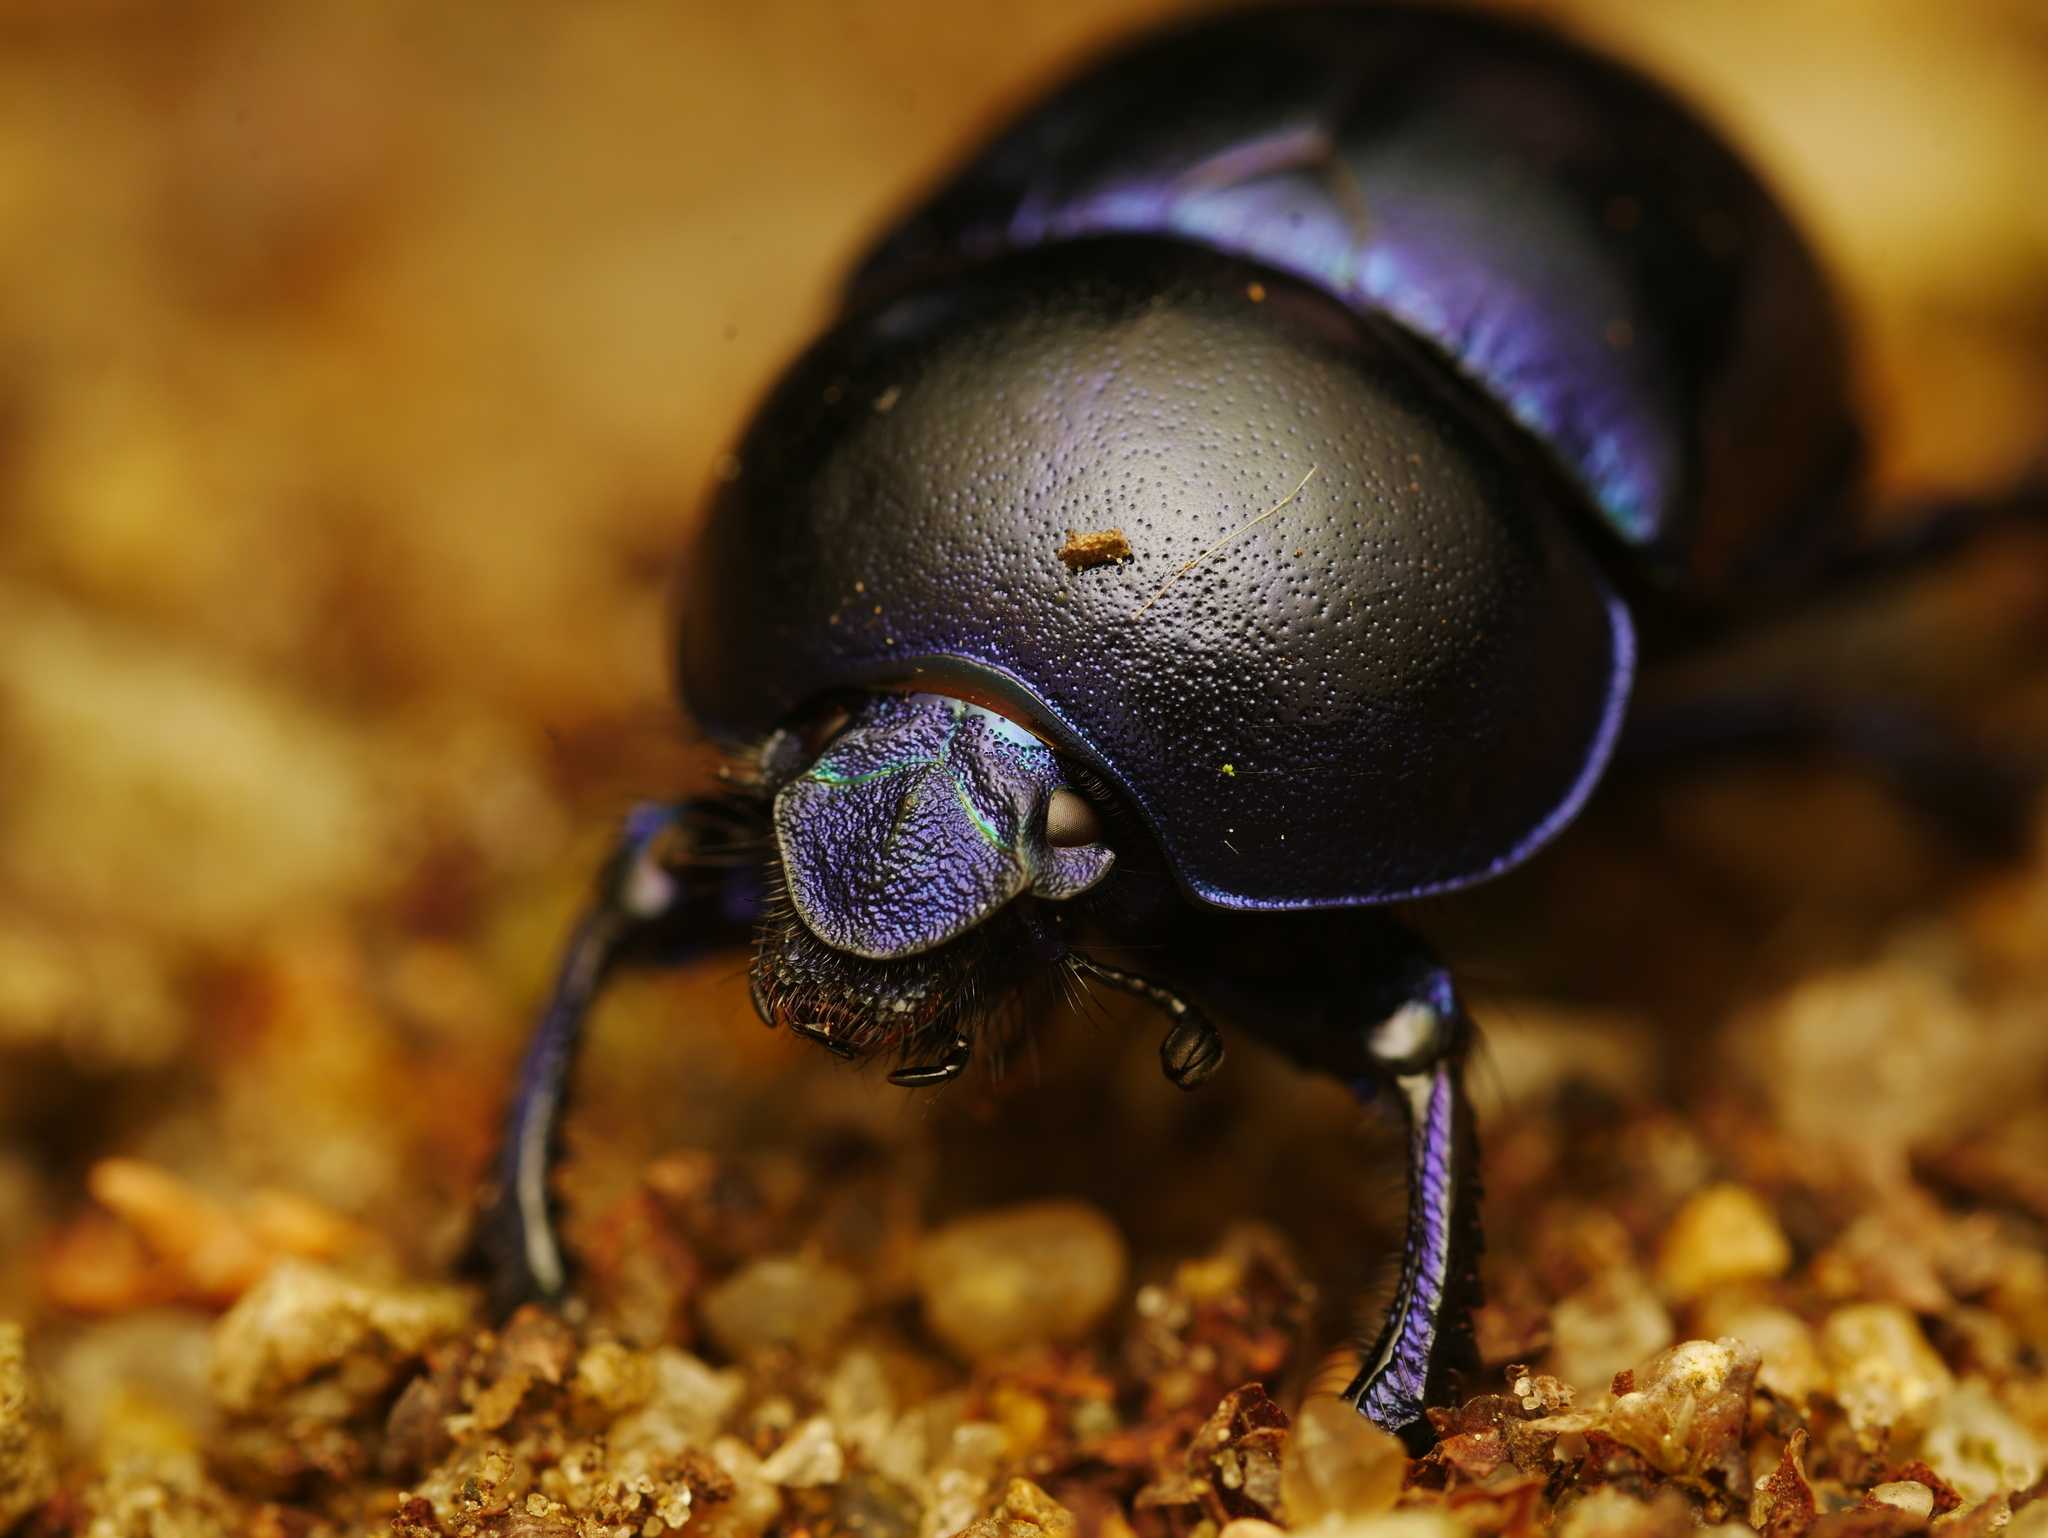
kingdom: Animalia
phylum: Arthropoda
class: Insecta
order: Coleoptera
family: Geotrupidae
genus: Trypocopris
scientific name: Trypocopris vernalis
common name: Spring dumbledor
